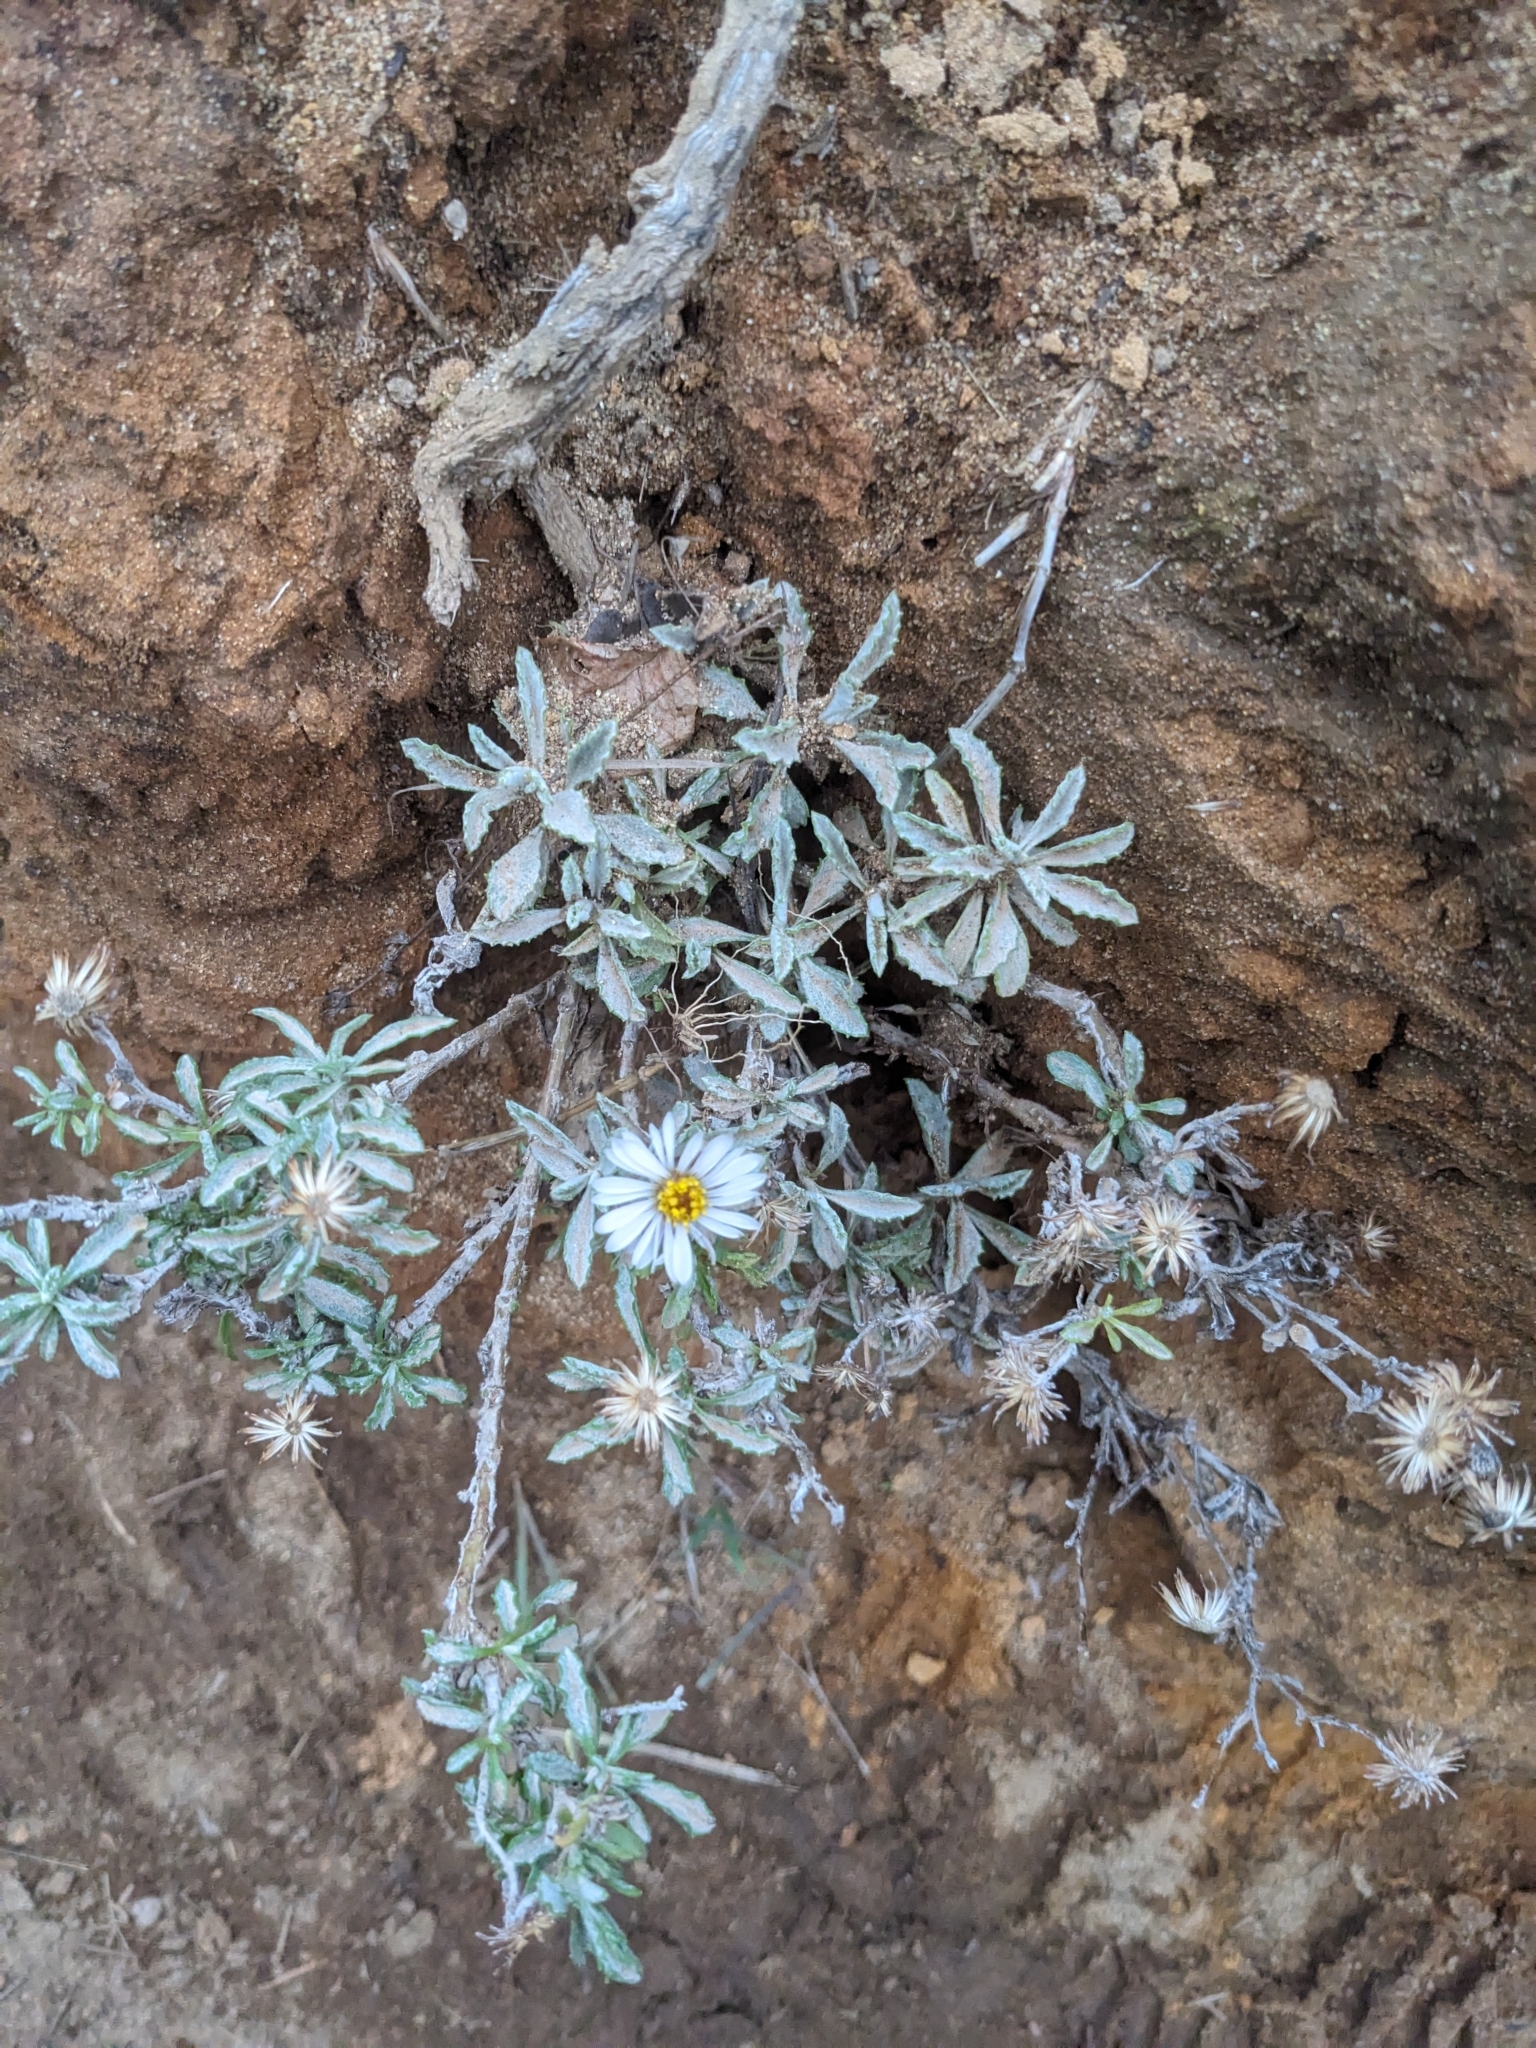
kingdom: Plantae
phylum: Tracheophyta
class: Magnoliopsida
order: Asterales
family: Asteraceae
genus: Corethrogyne
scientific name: Corethrogyne filaginifolia
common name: Sand-aster
